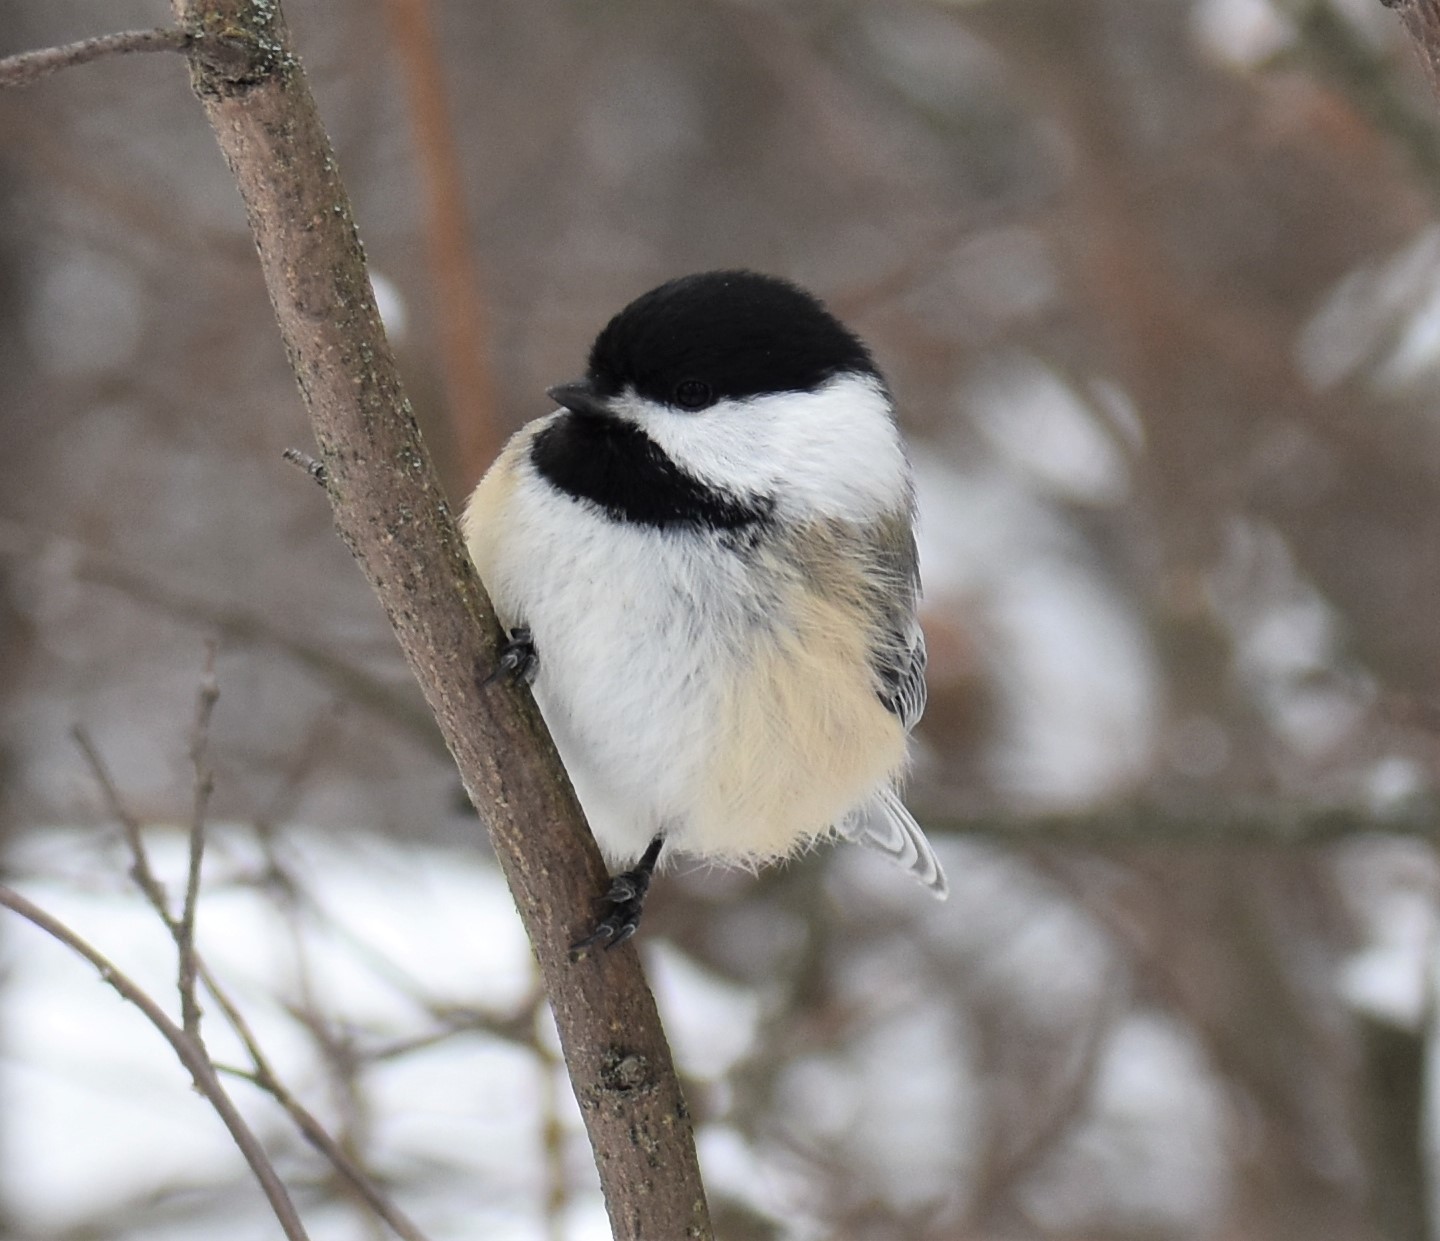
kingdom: Animalia
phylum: Chordata
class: Aves
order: Passeriformes
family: Paridae
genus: Poecile
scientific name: Poecile atricapillus
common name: Black-capped chickadee
